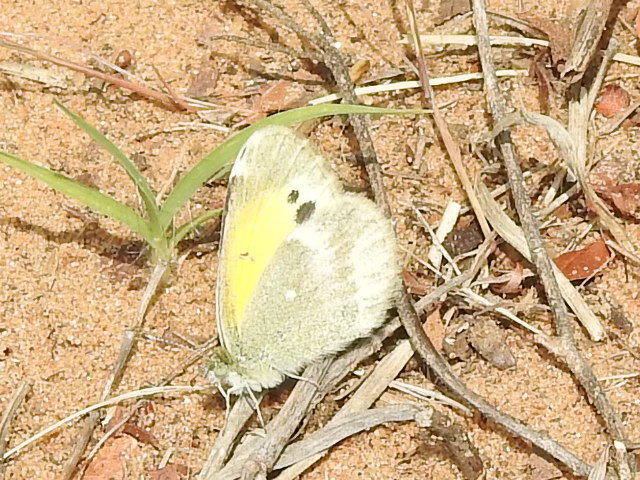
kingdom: Animalia
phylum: Arthropoda
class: Insecta
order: Lepidoptera
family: Pieridae
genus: Nathalis
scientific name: Nathalis iole
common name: Dainty sulphur
